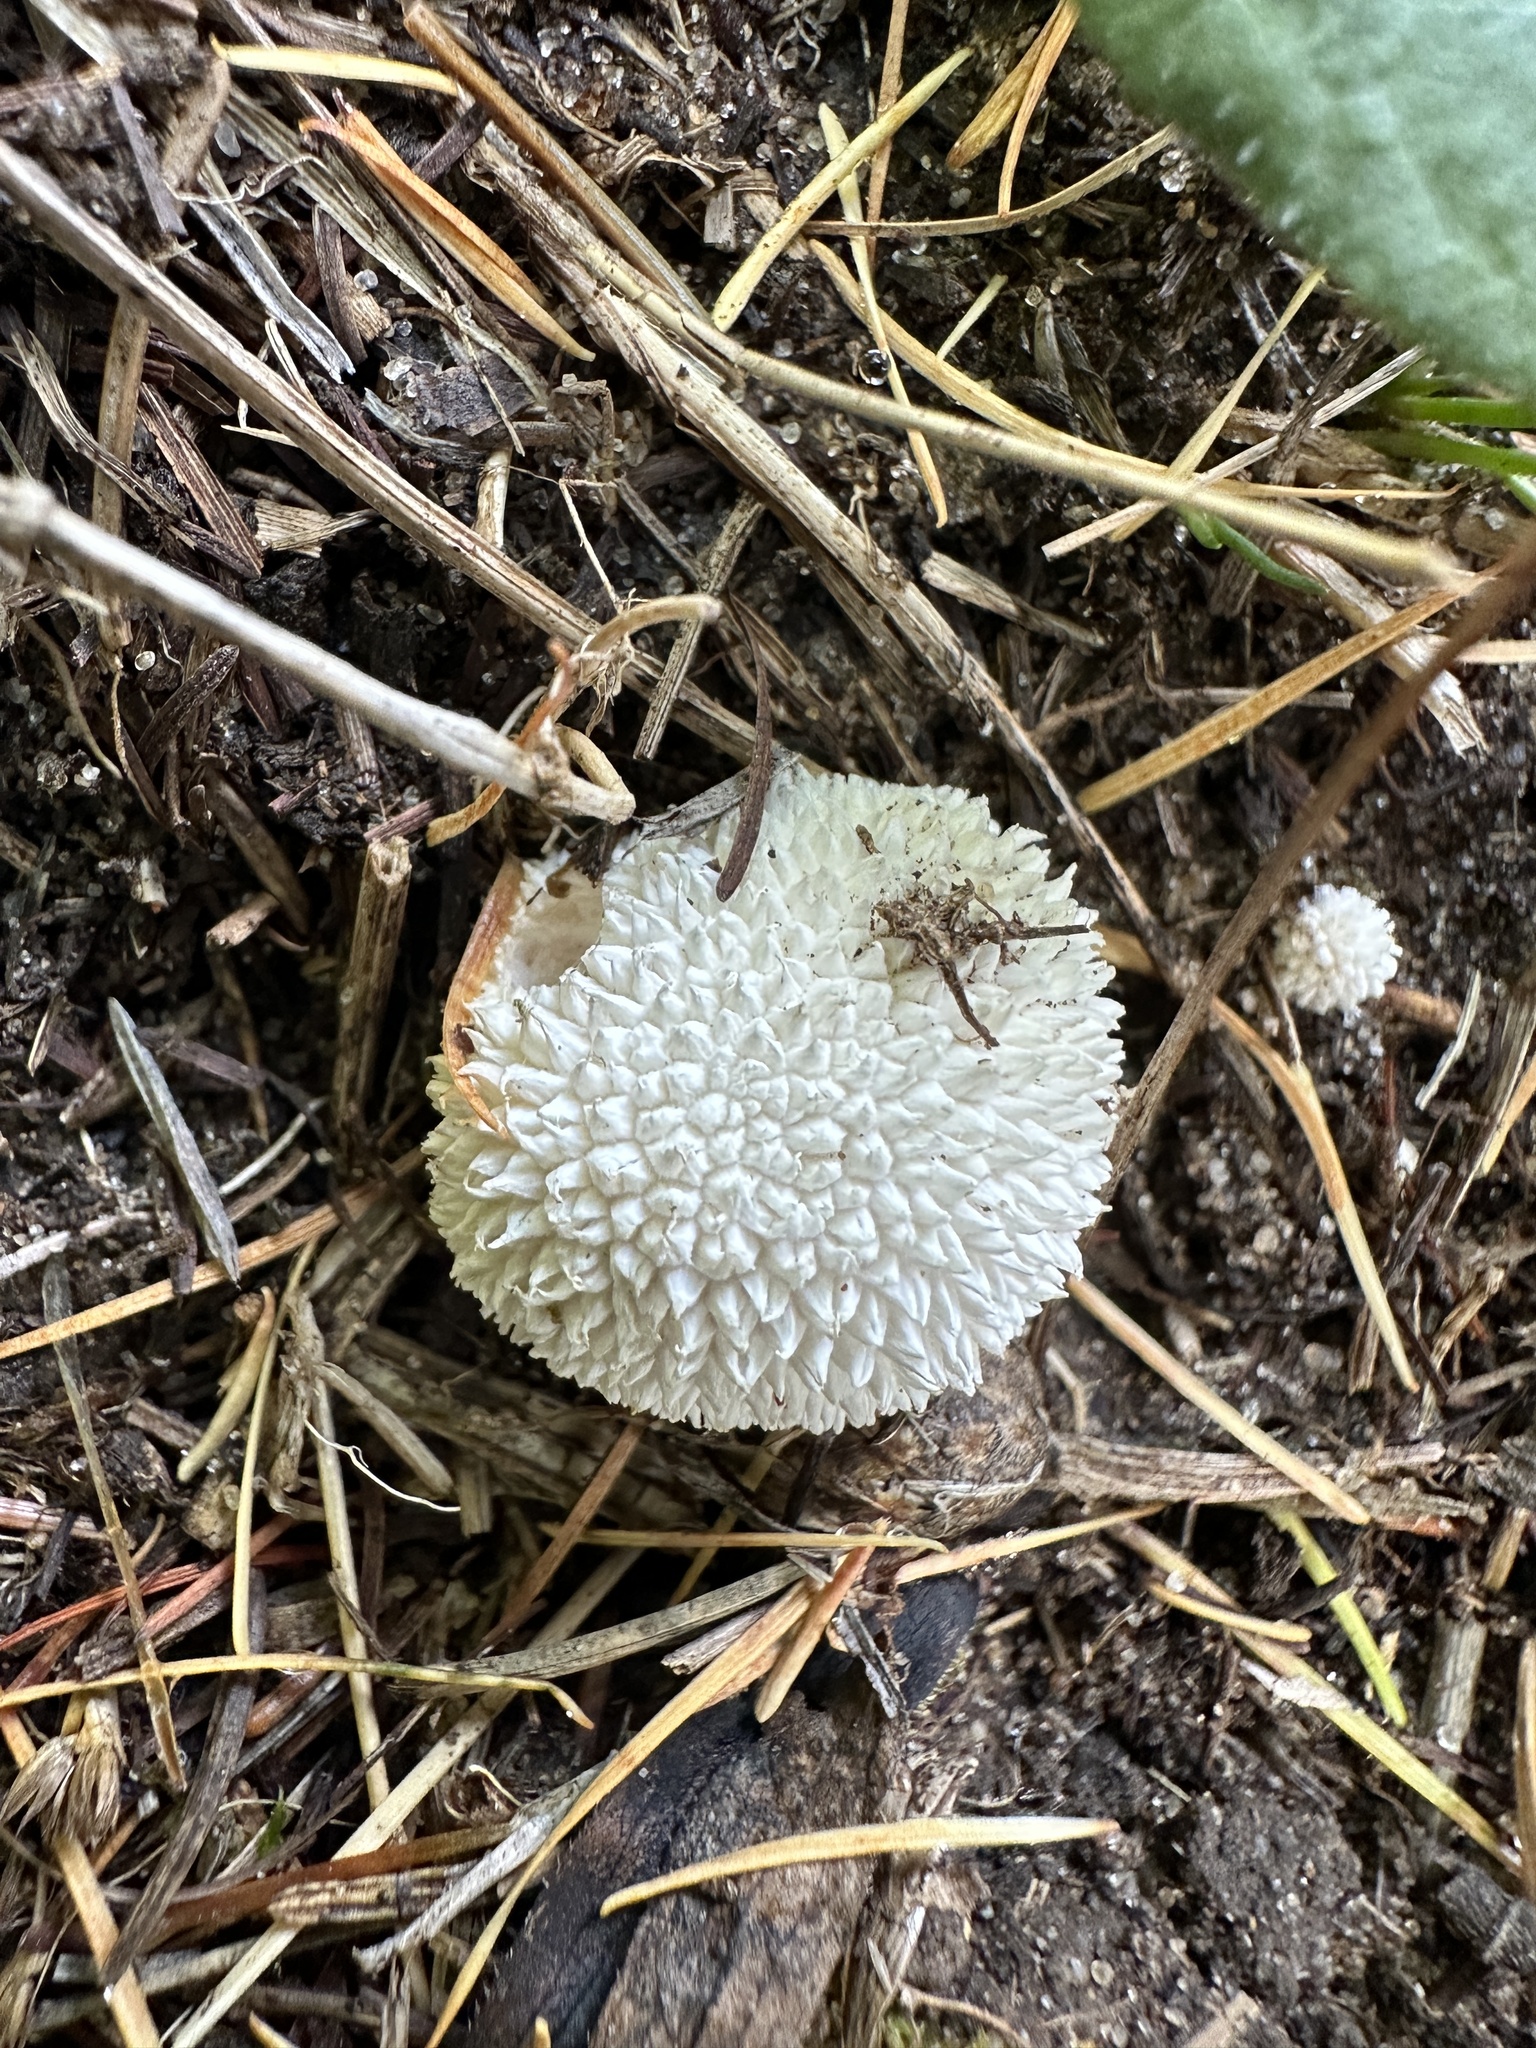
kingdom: Fungi
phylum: Basidiomycota
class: Agaricomycetes
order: Agaricales
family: Agaricaceae
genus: Lycoperdon
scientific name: Lycoperdon marginatum
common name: Peeling puffball
